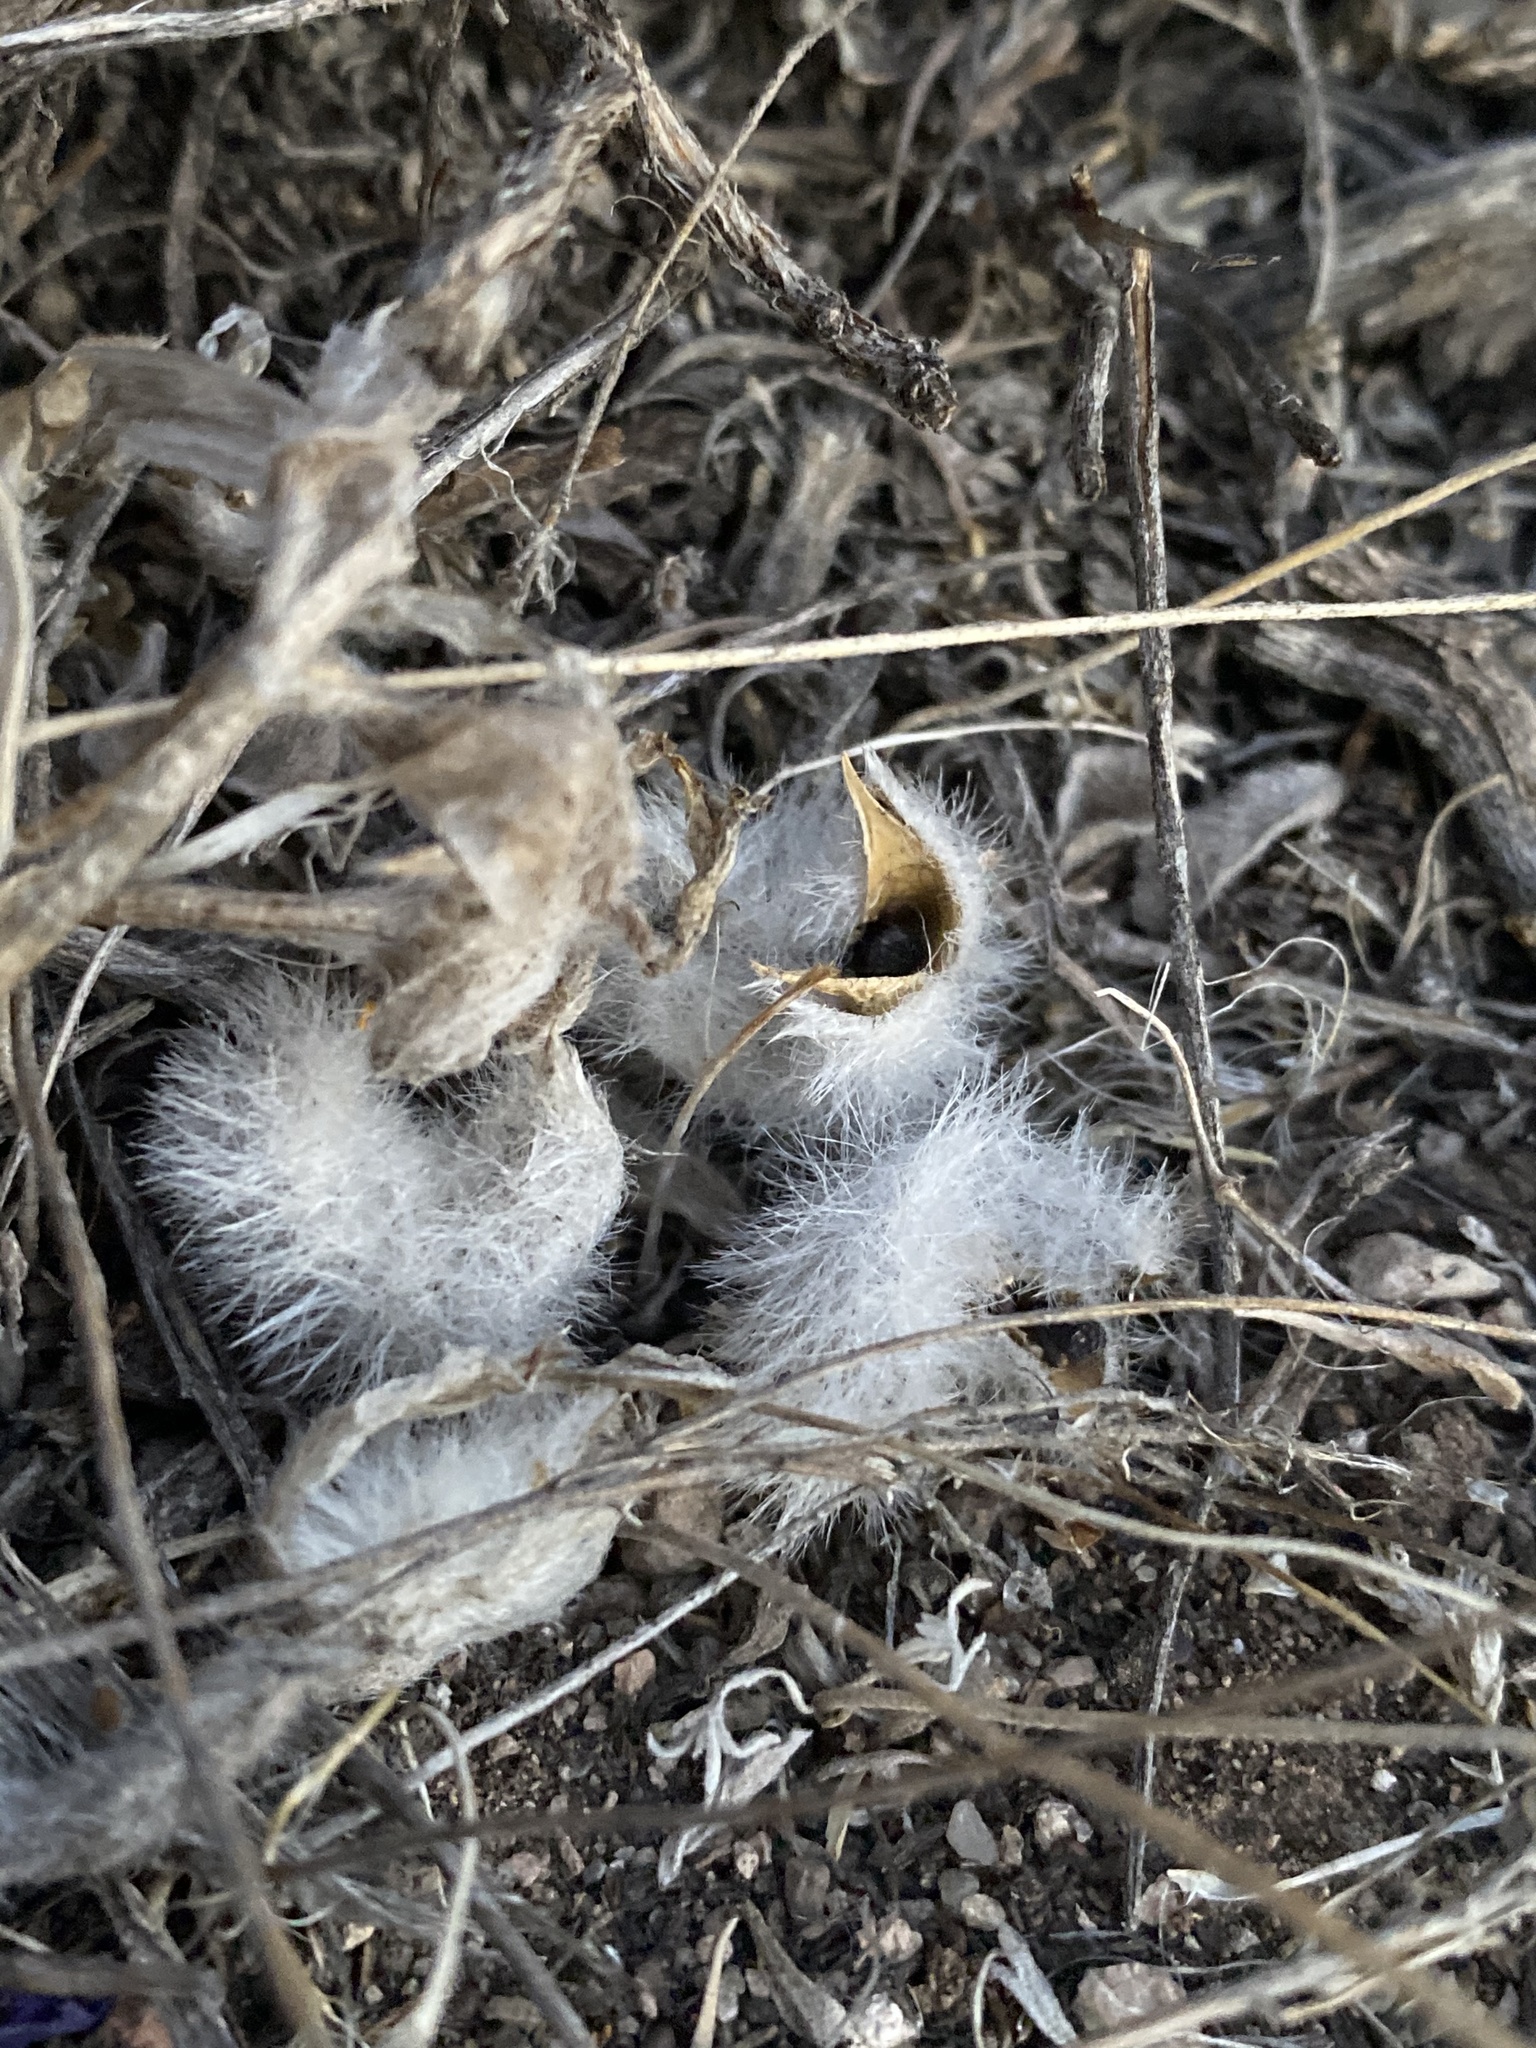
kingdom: Plantae
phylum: Tracheophyta
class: Magnoliopsida
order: Fabales
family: Fabaceae
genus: Astragalus
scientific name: Astragalus newberryi
